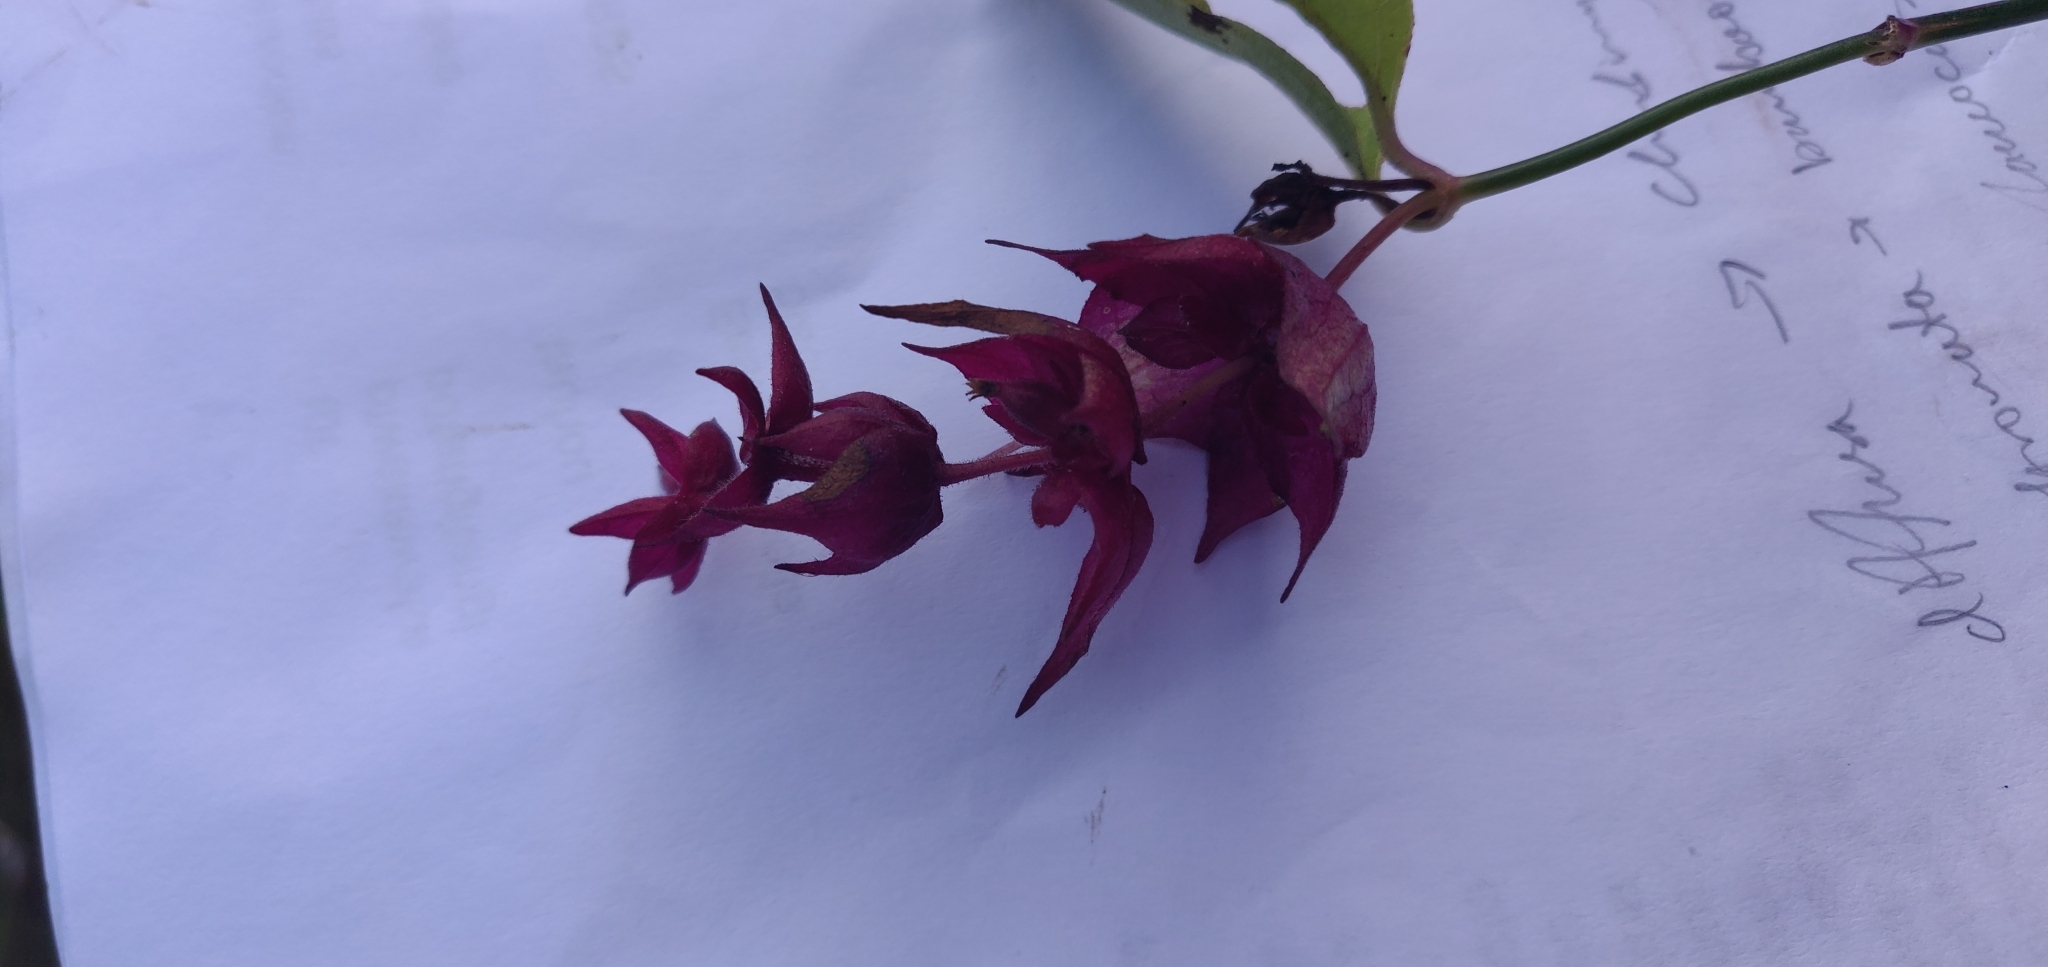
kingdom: Plantae
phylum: Tracheophyta
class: Magnoliopsida
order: Dipsacales
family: Caprifoliaceae
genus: Leycesteria
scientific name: Leycesteria formosa
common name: Himalayan honeysuckle
